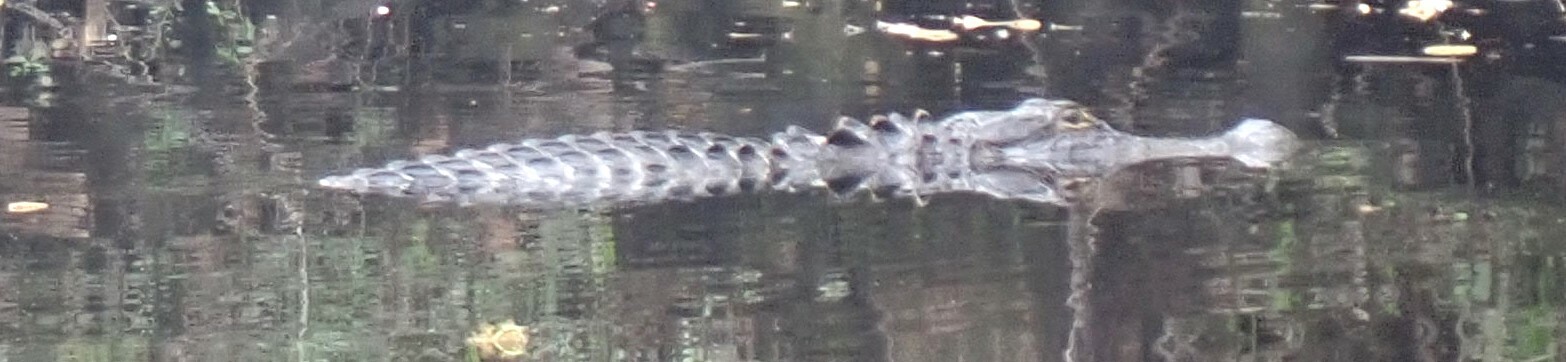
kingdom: Animalia
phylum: Chordata
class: Crocodylia
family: Alligatoridae
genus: Alligator
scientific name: Alligator mississippiensis
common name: American alligator
